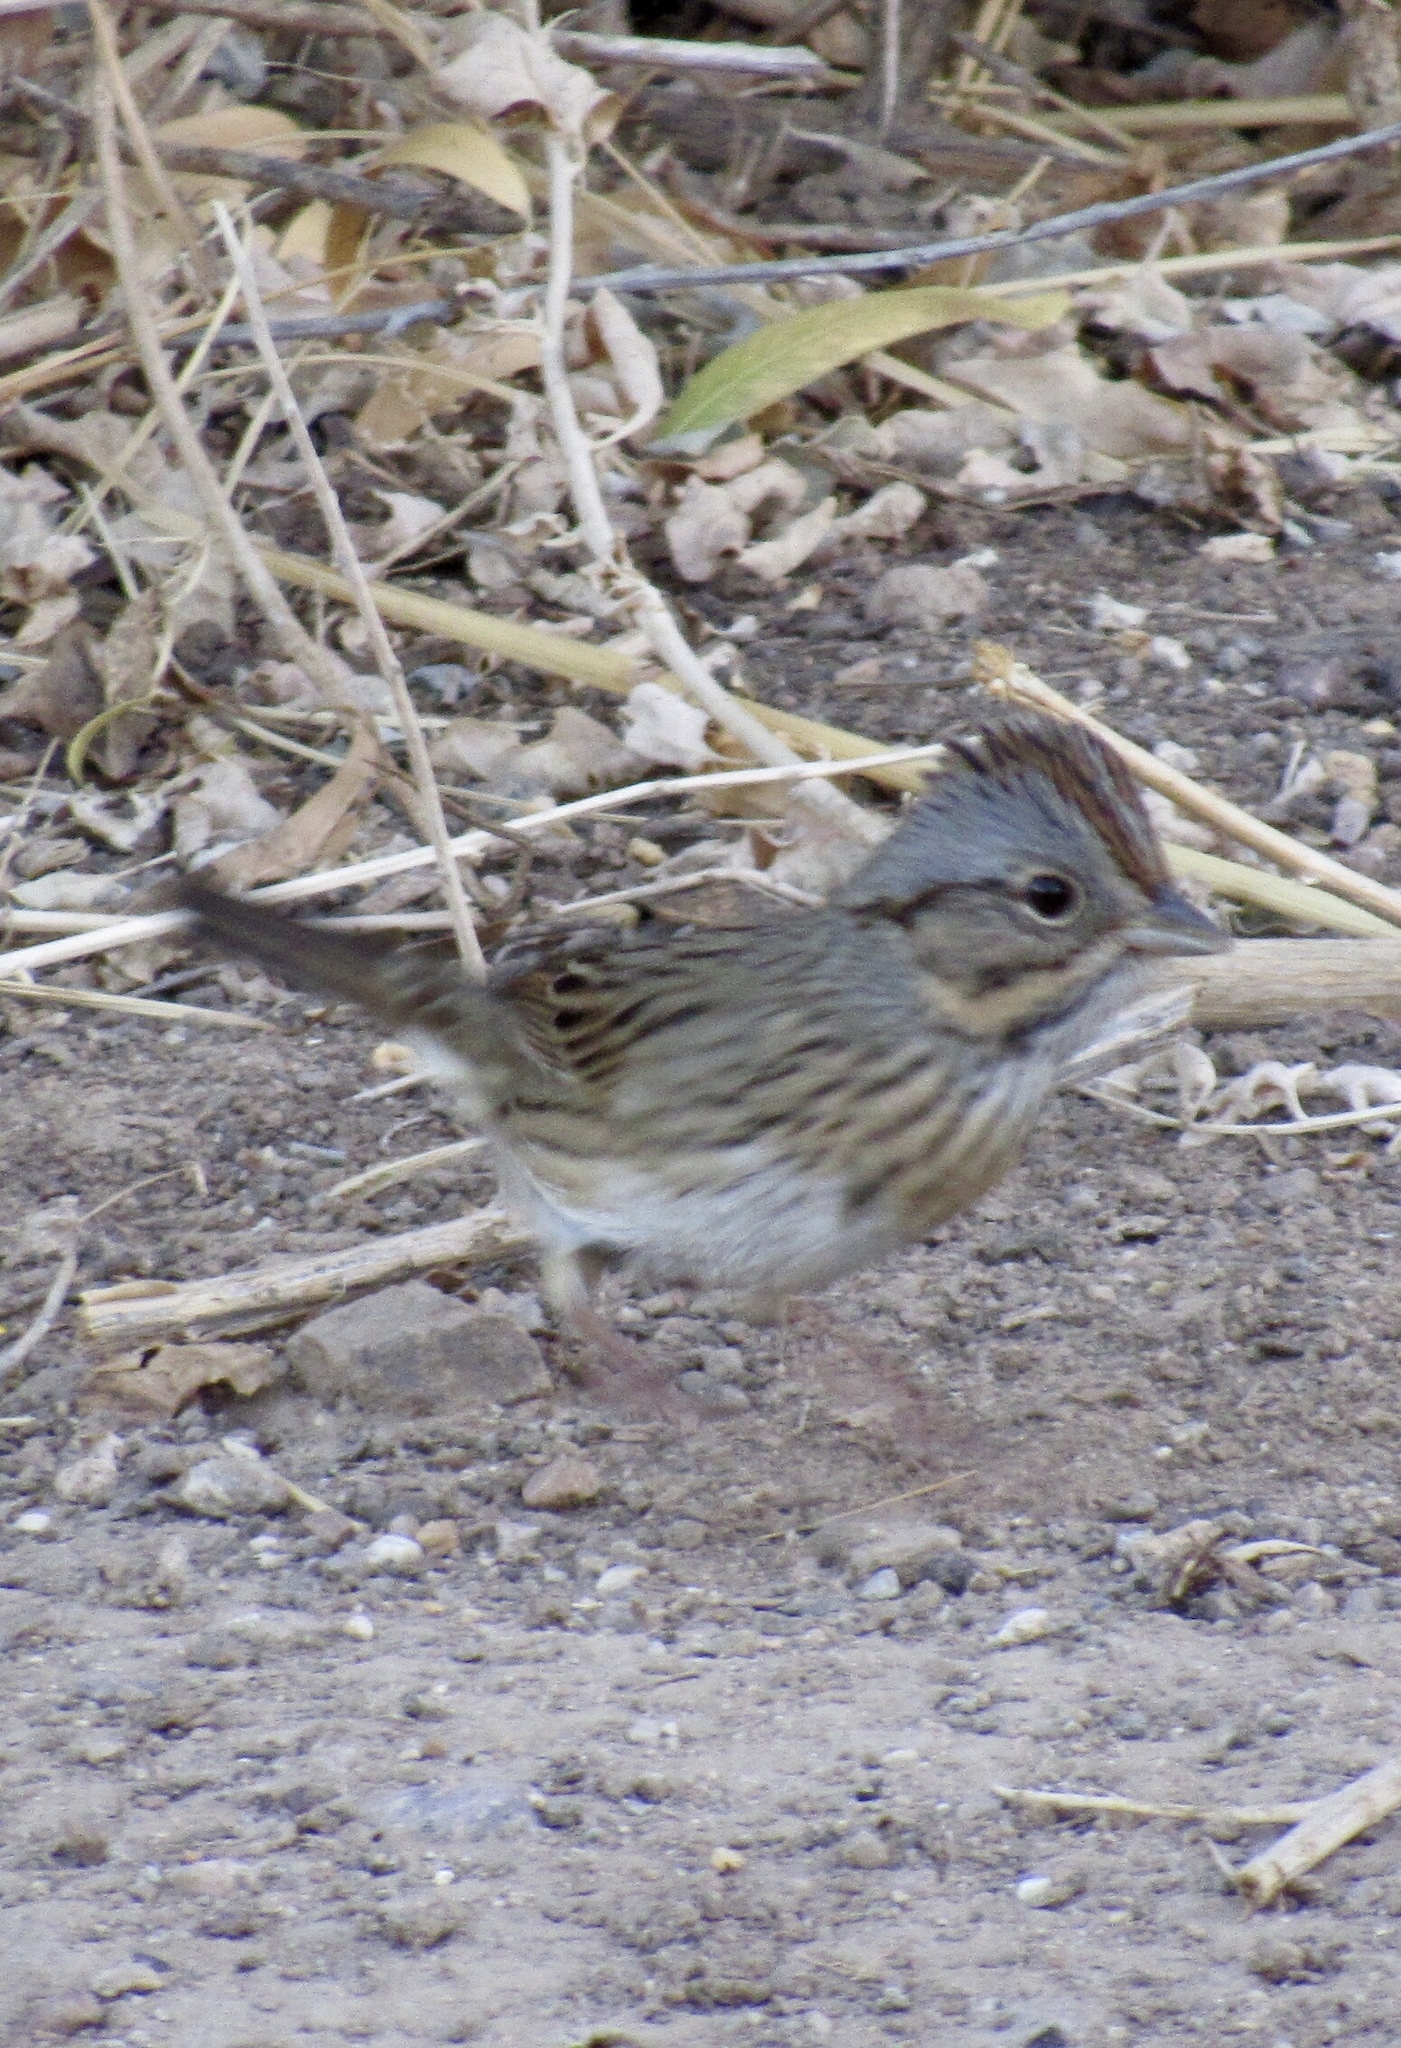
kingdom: Animalia
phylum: Chordata
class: Aves
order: Passeriformes
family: Passerellidae
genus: Melospiza
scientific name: Melospiza lincolnii
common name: Lincoln's sparrow
